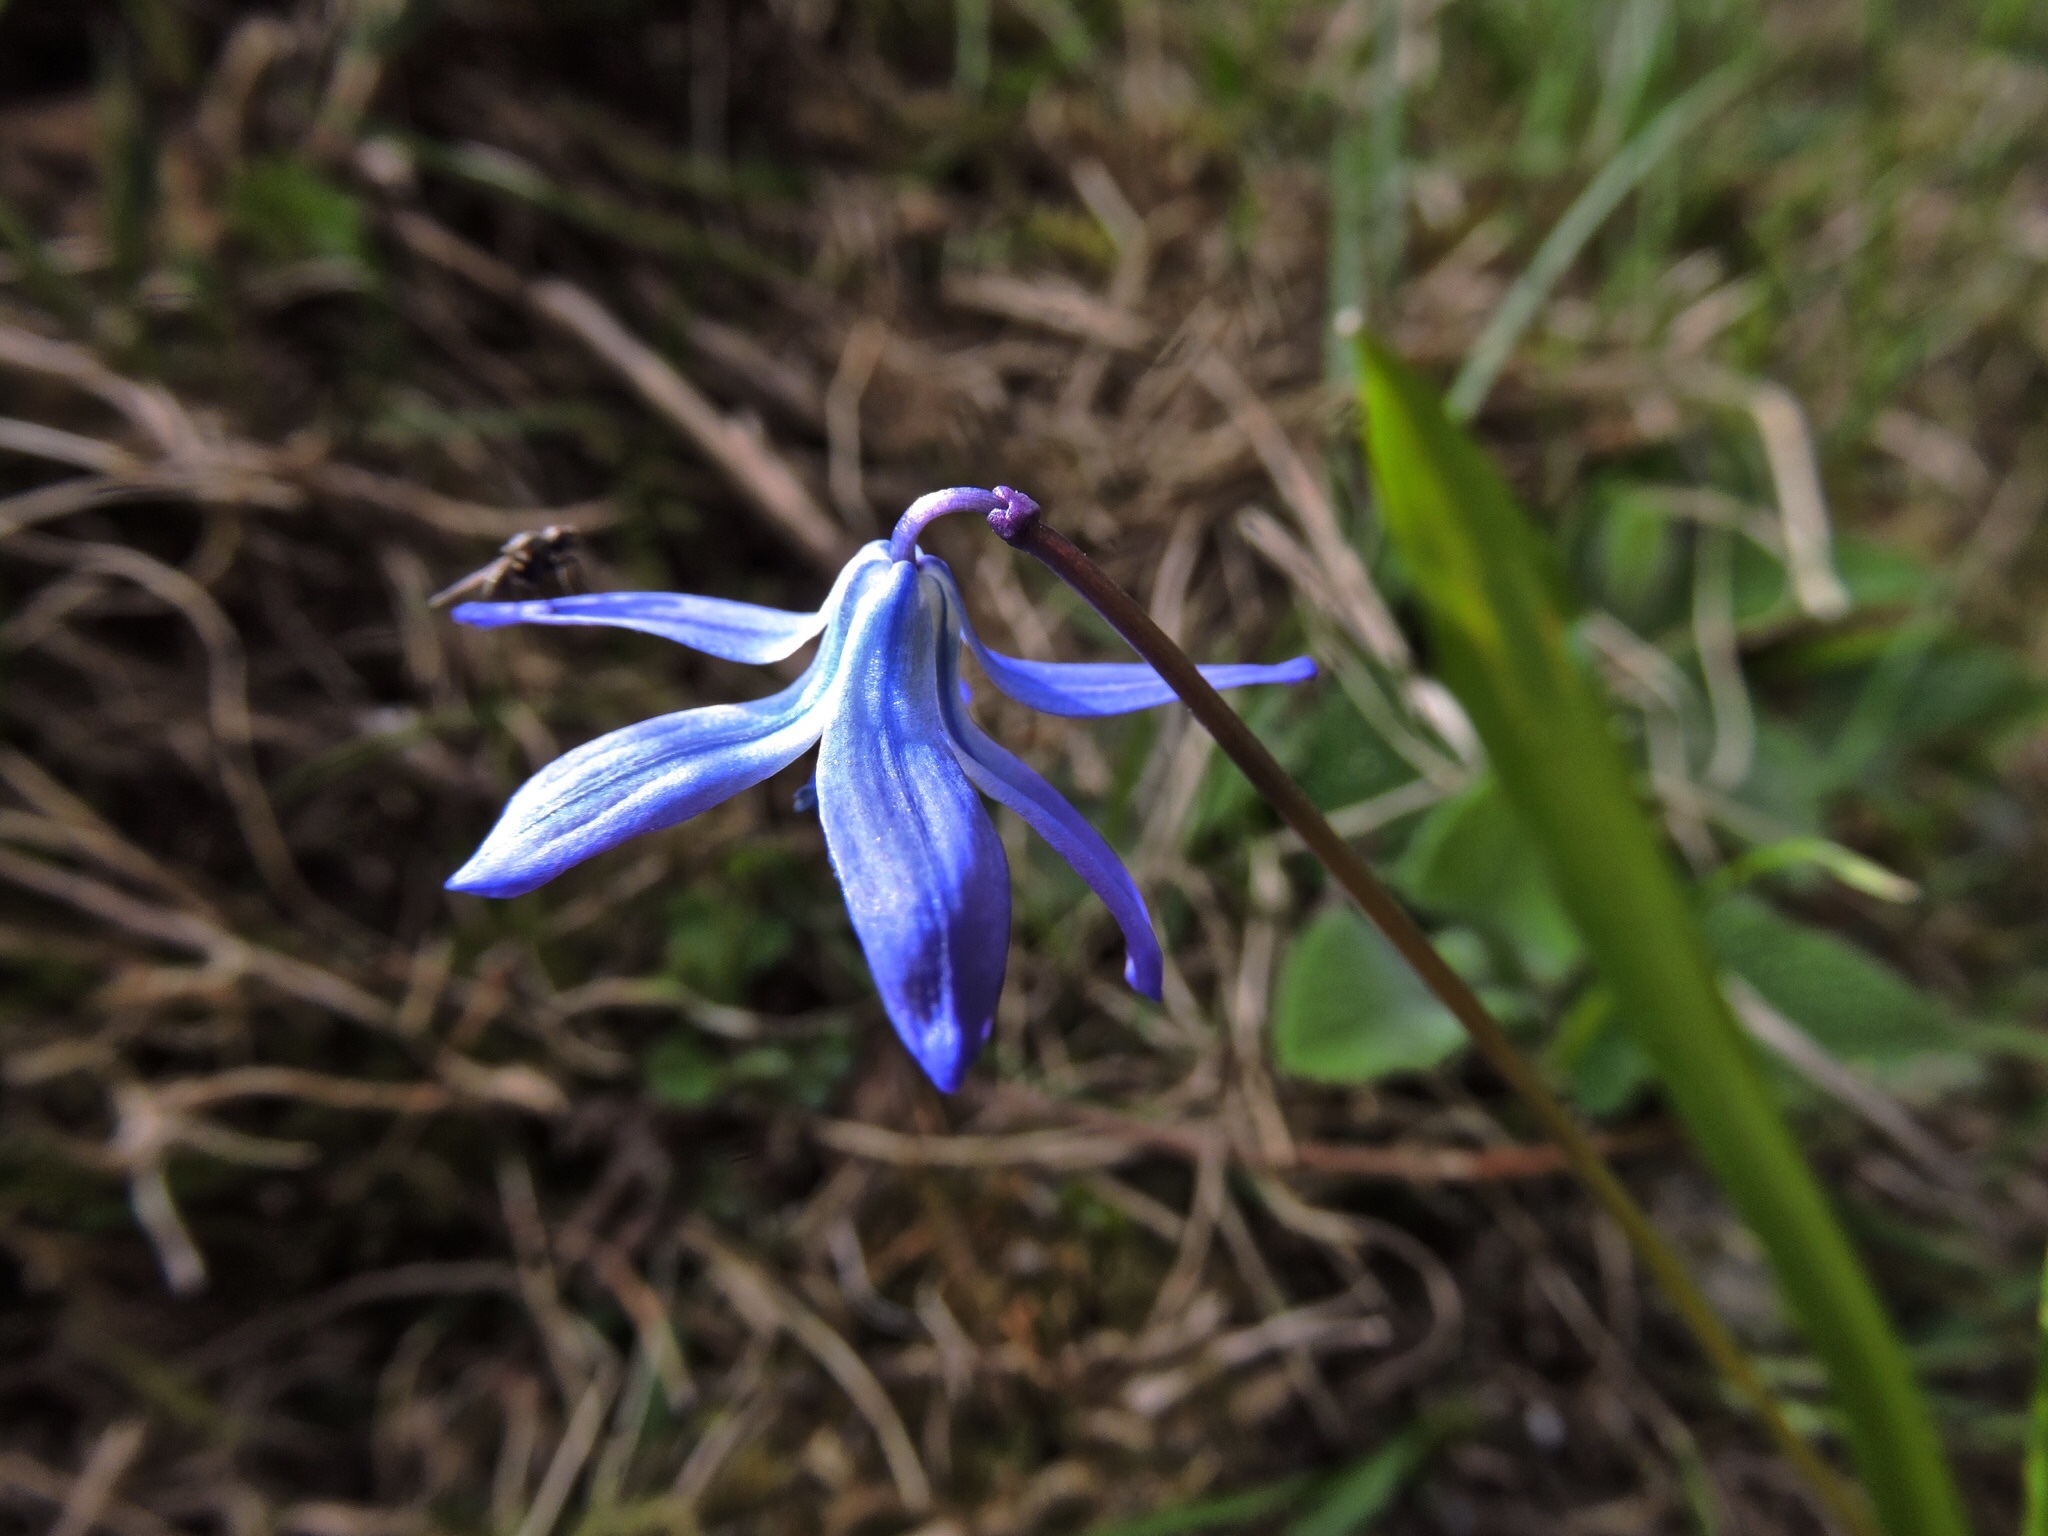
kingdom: Plantae
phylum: Tracheophyta
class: Liliopsida
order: Asparagales
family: Asparagaceae
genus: Scilla
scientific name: Scilla siberica
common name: Siberian squill
